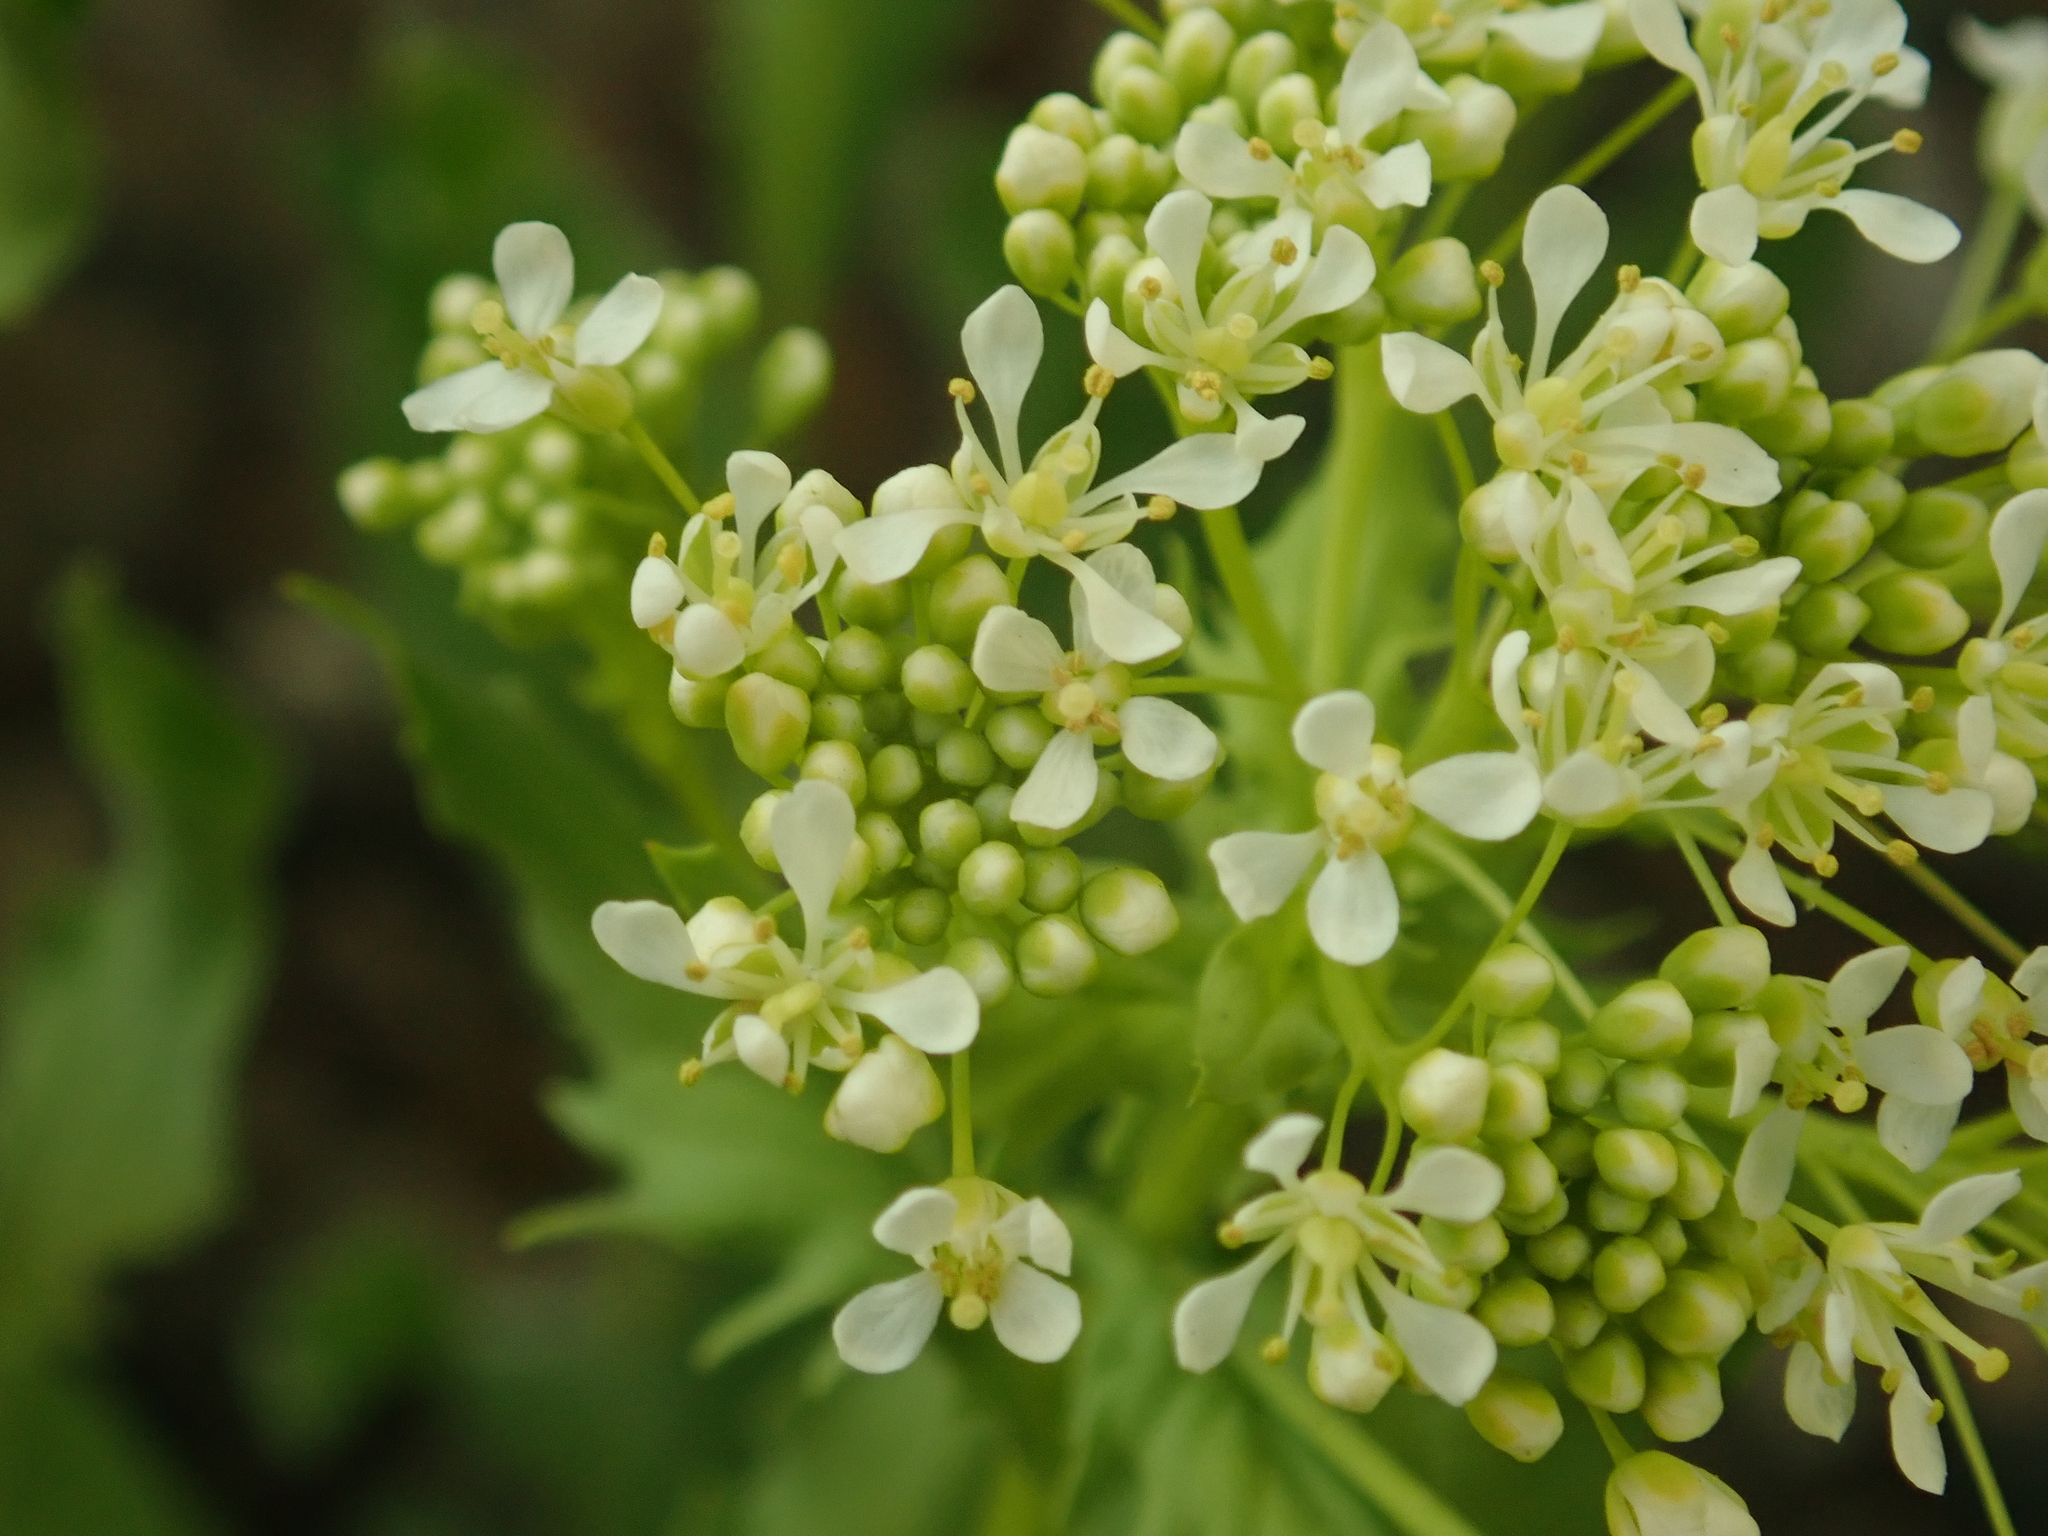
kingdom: Plantae
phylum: Tracheophyta
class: Magnoliopsida
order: Brassicales
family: Brassicaceae
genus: Lepidium
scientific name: Lepidium draba
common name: Hoary cress
